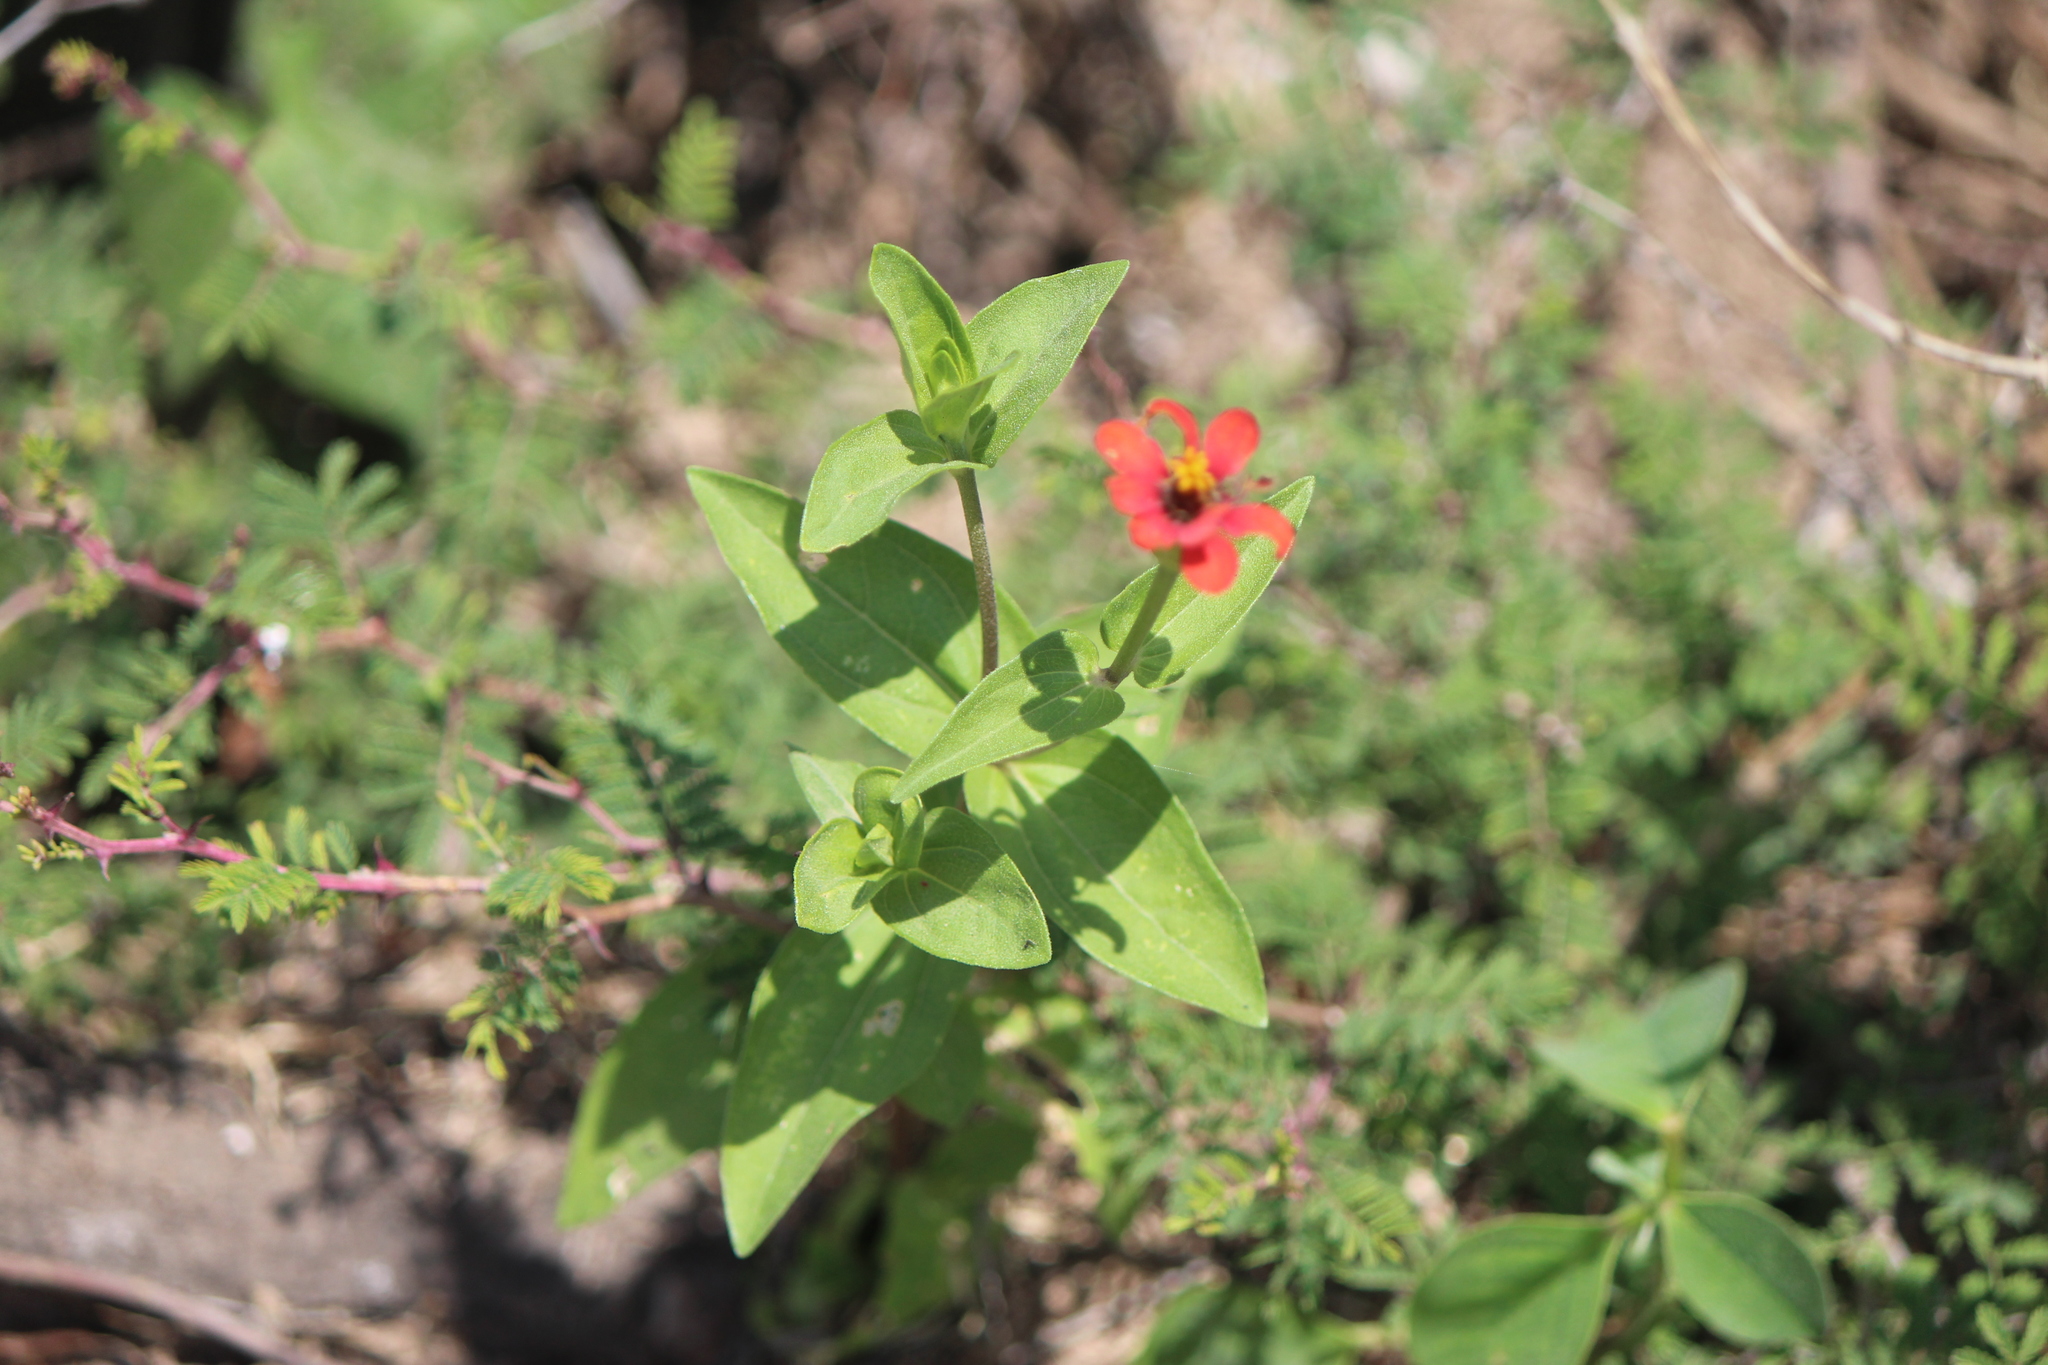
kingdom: Plantae
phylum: Tracheophyta
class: Magnoliopsida
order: Asterales
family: Asteraceae
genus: Zinnia
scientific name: Zinnia peruviana
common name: Peruvian zinnia
